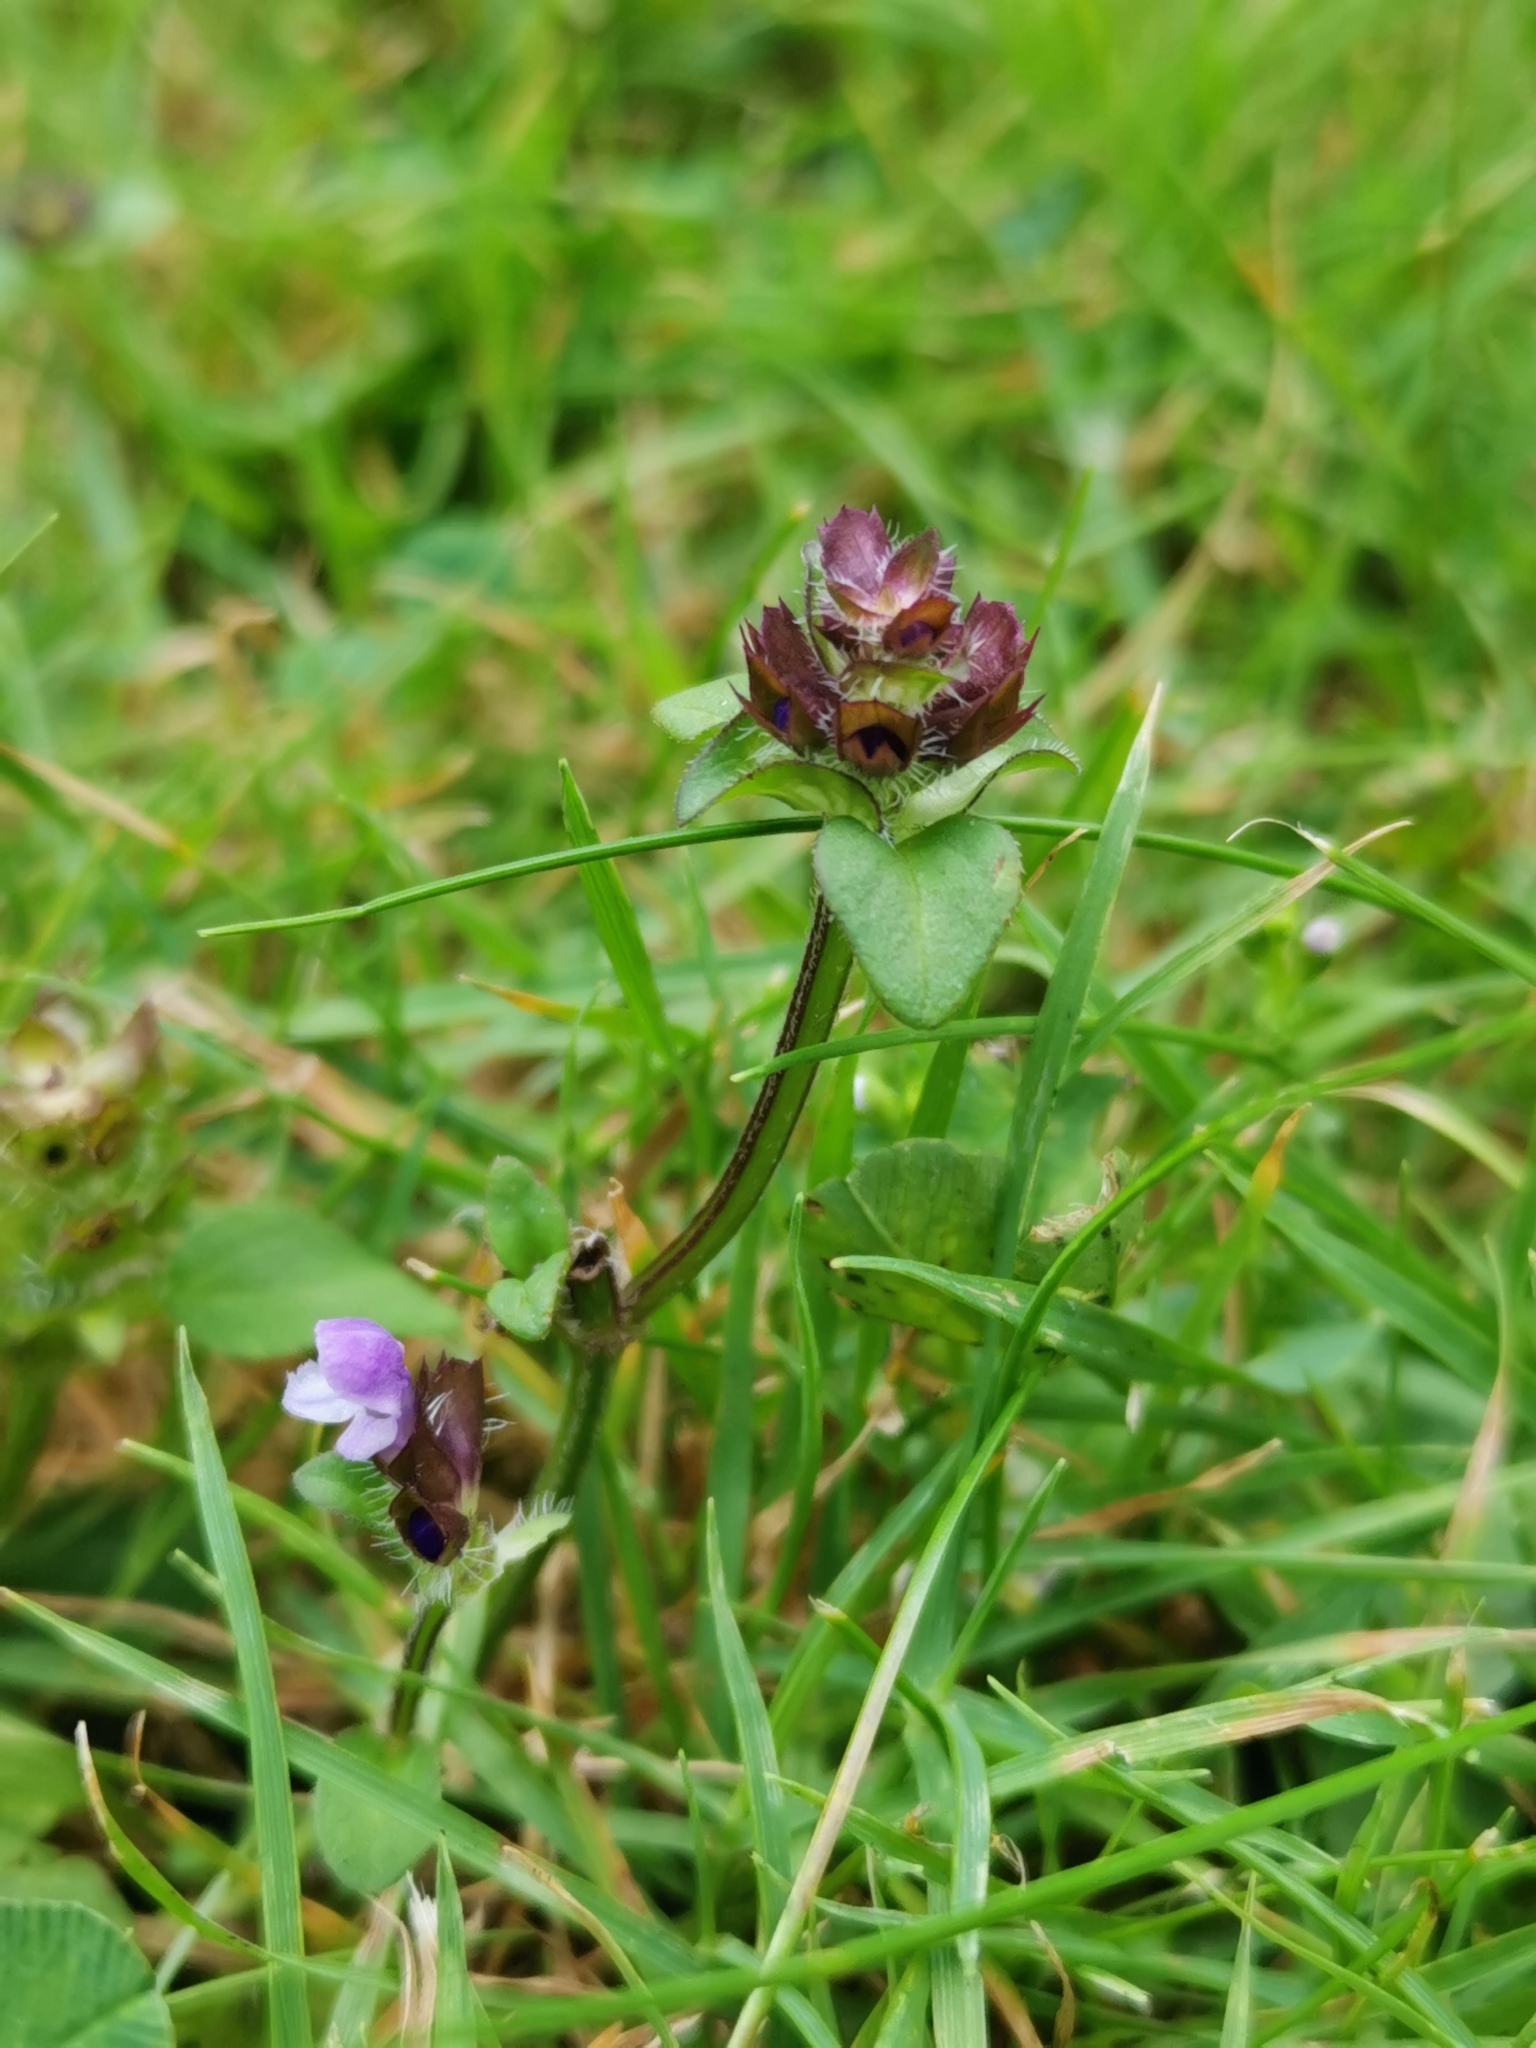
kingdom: Plantae
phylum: Tracheophyta
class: Magnoliopsida
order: Lamiales
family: Lamiaceae
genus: Prunella
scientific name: Prunella vulgaris
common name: Heal-all
